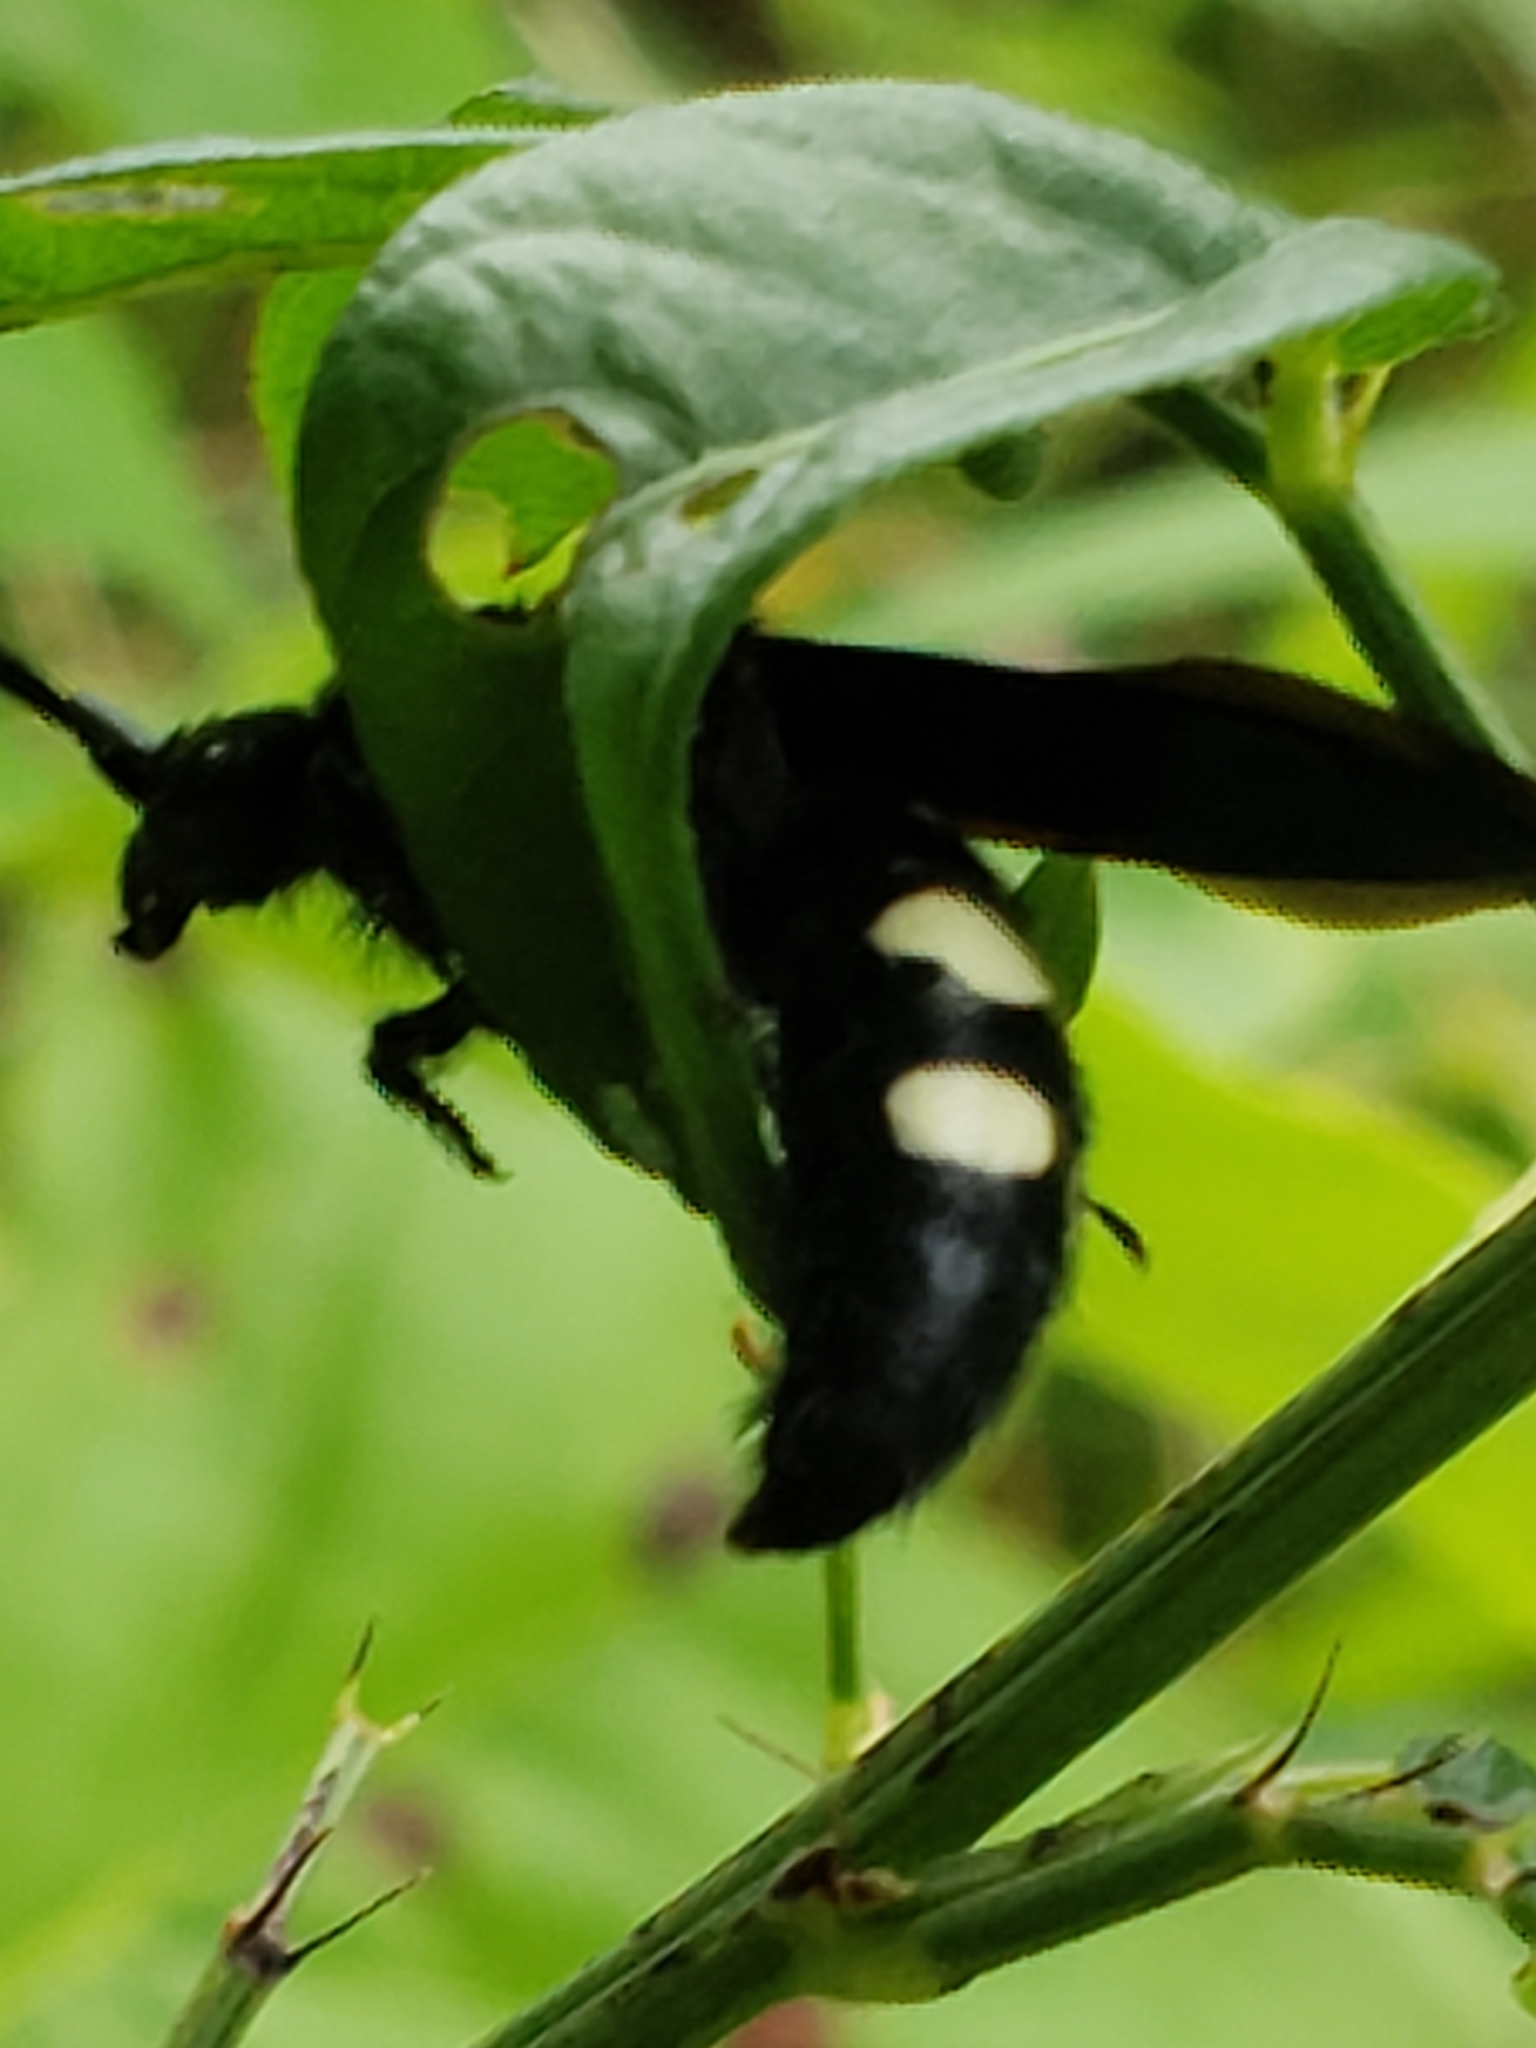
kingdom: Animalia
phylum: Arthropoda
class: Insecta
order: Hymenoptera
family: Scoliidae
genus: Scolia
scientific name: Scolia bicincta
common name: Double-banded scoliid wasp
